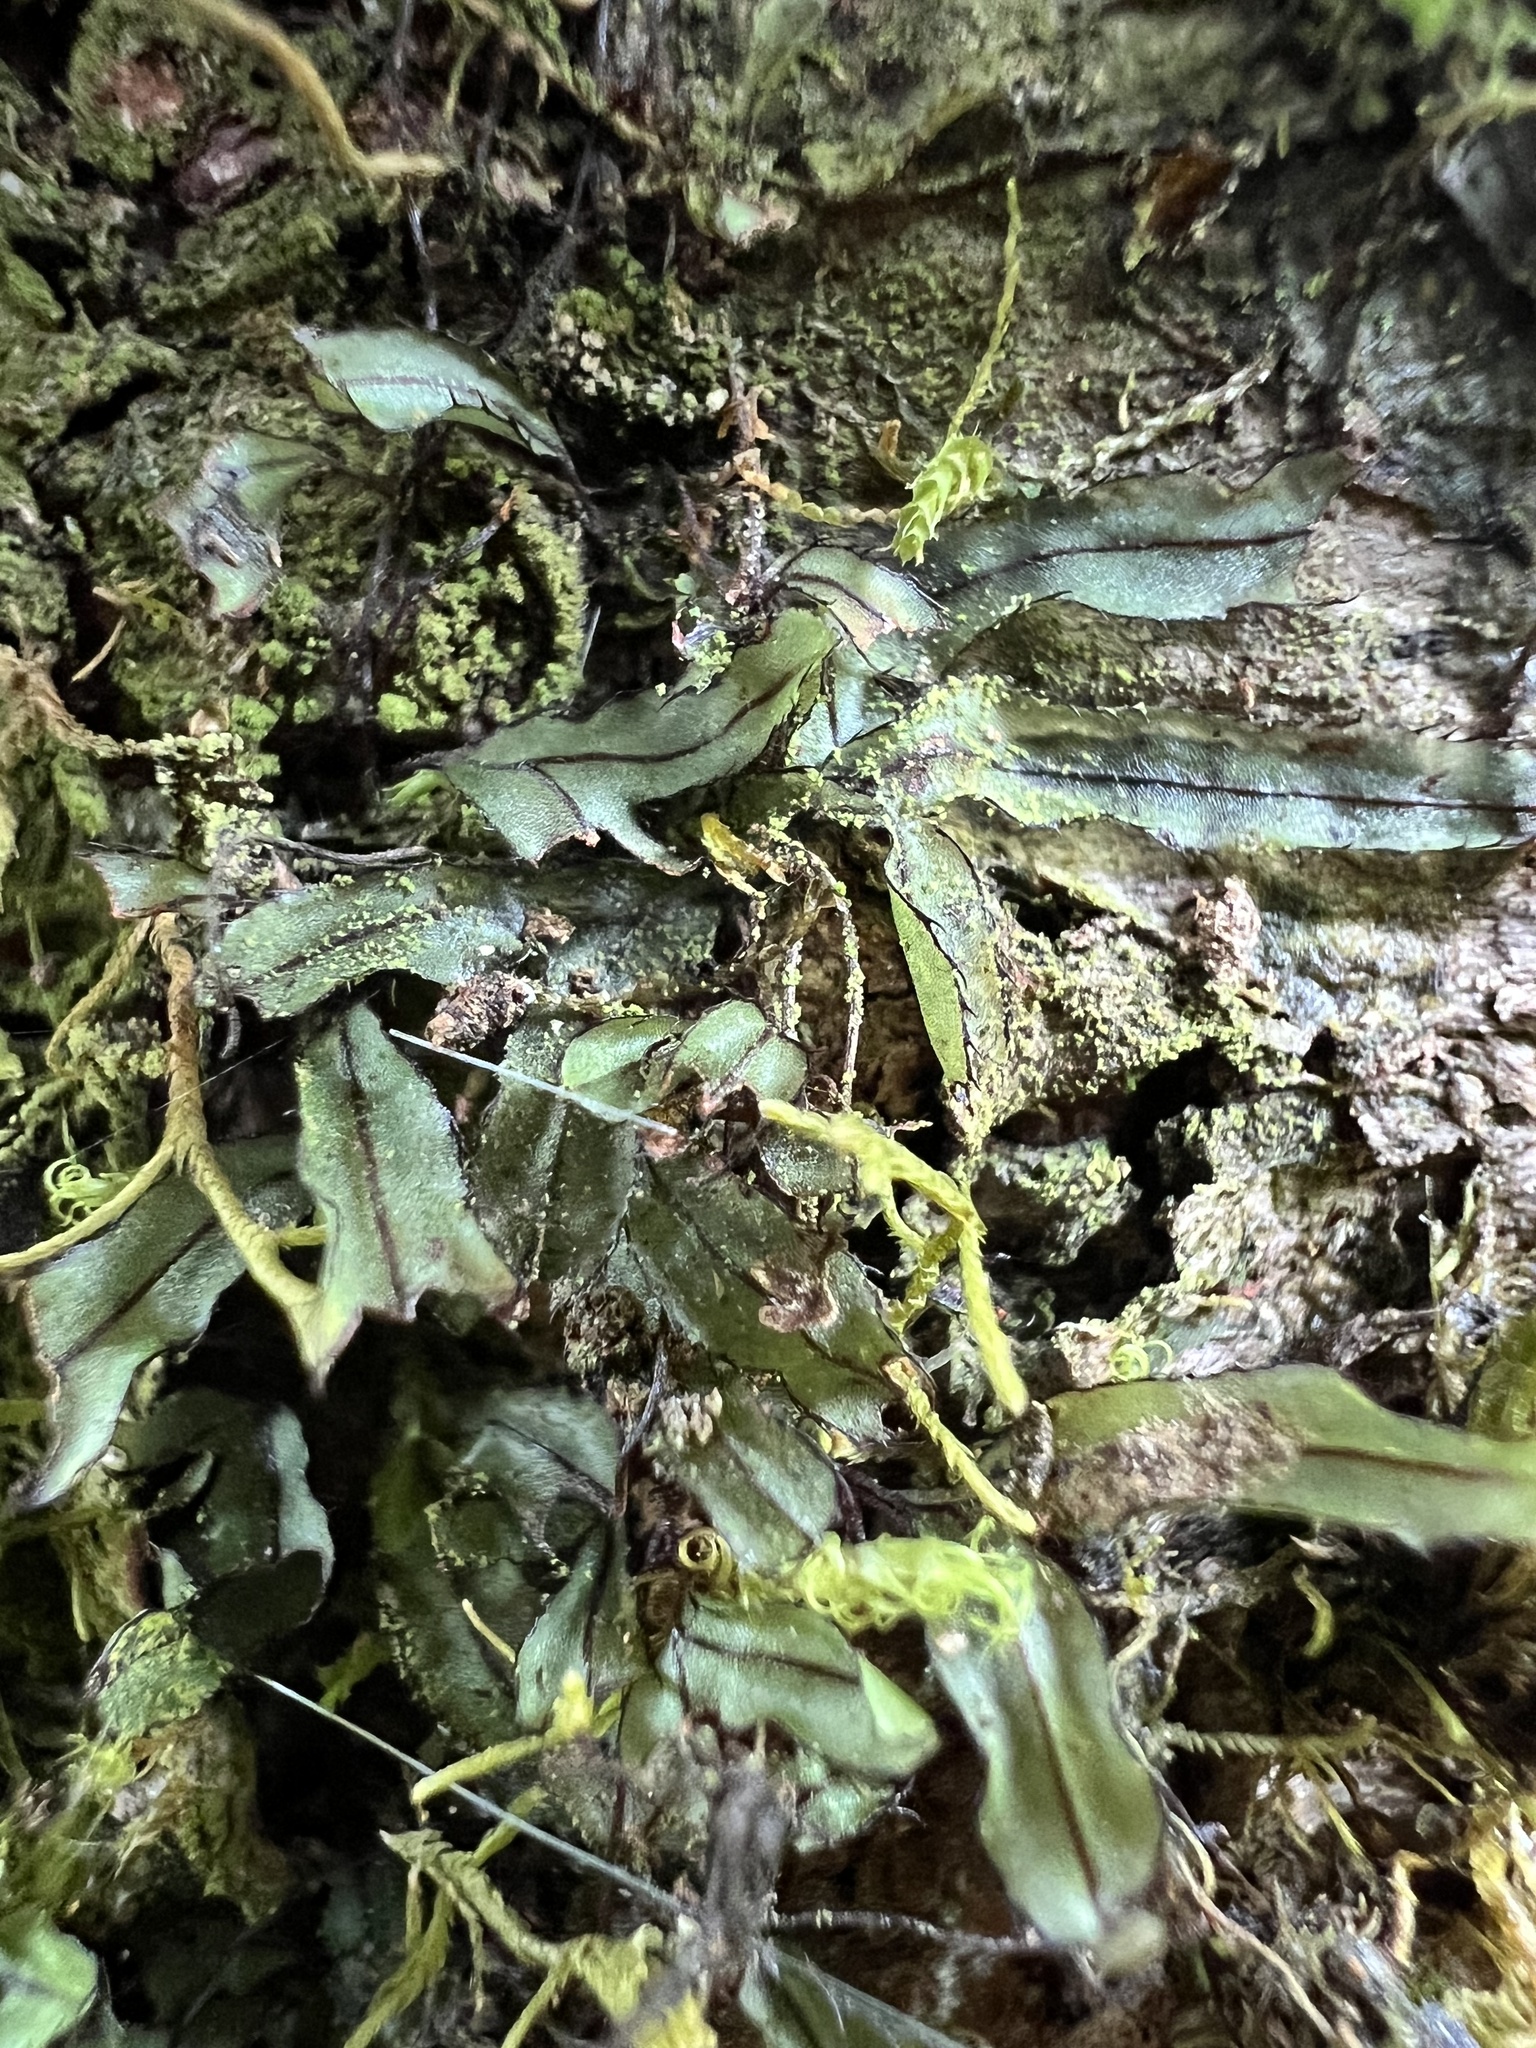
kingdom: Plantae
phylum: Tracheophyta
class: Polypodiopsida
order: Hymenophyllales
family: Hymenophyllaceae
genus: Hymenophyllum
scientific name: Hymenophyllum armstrongii
